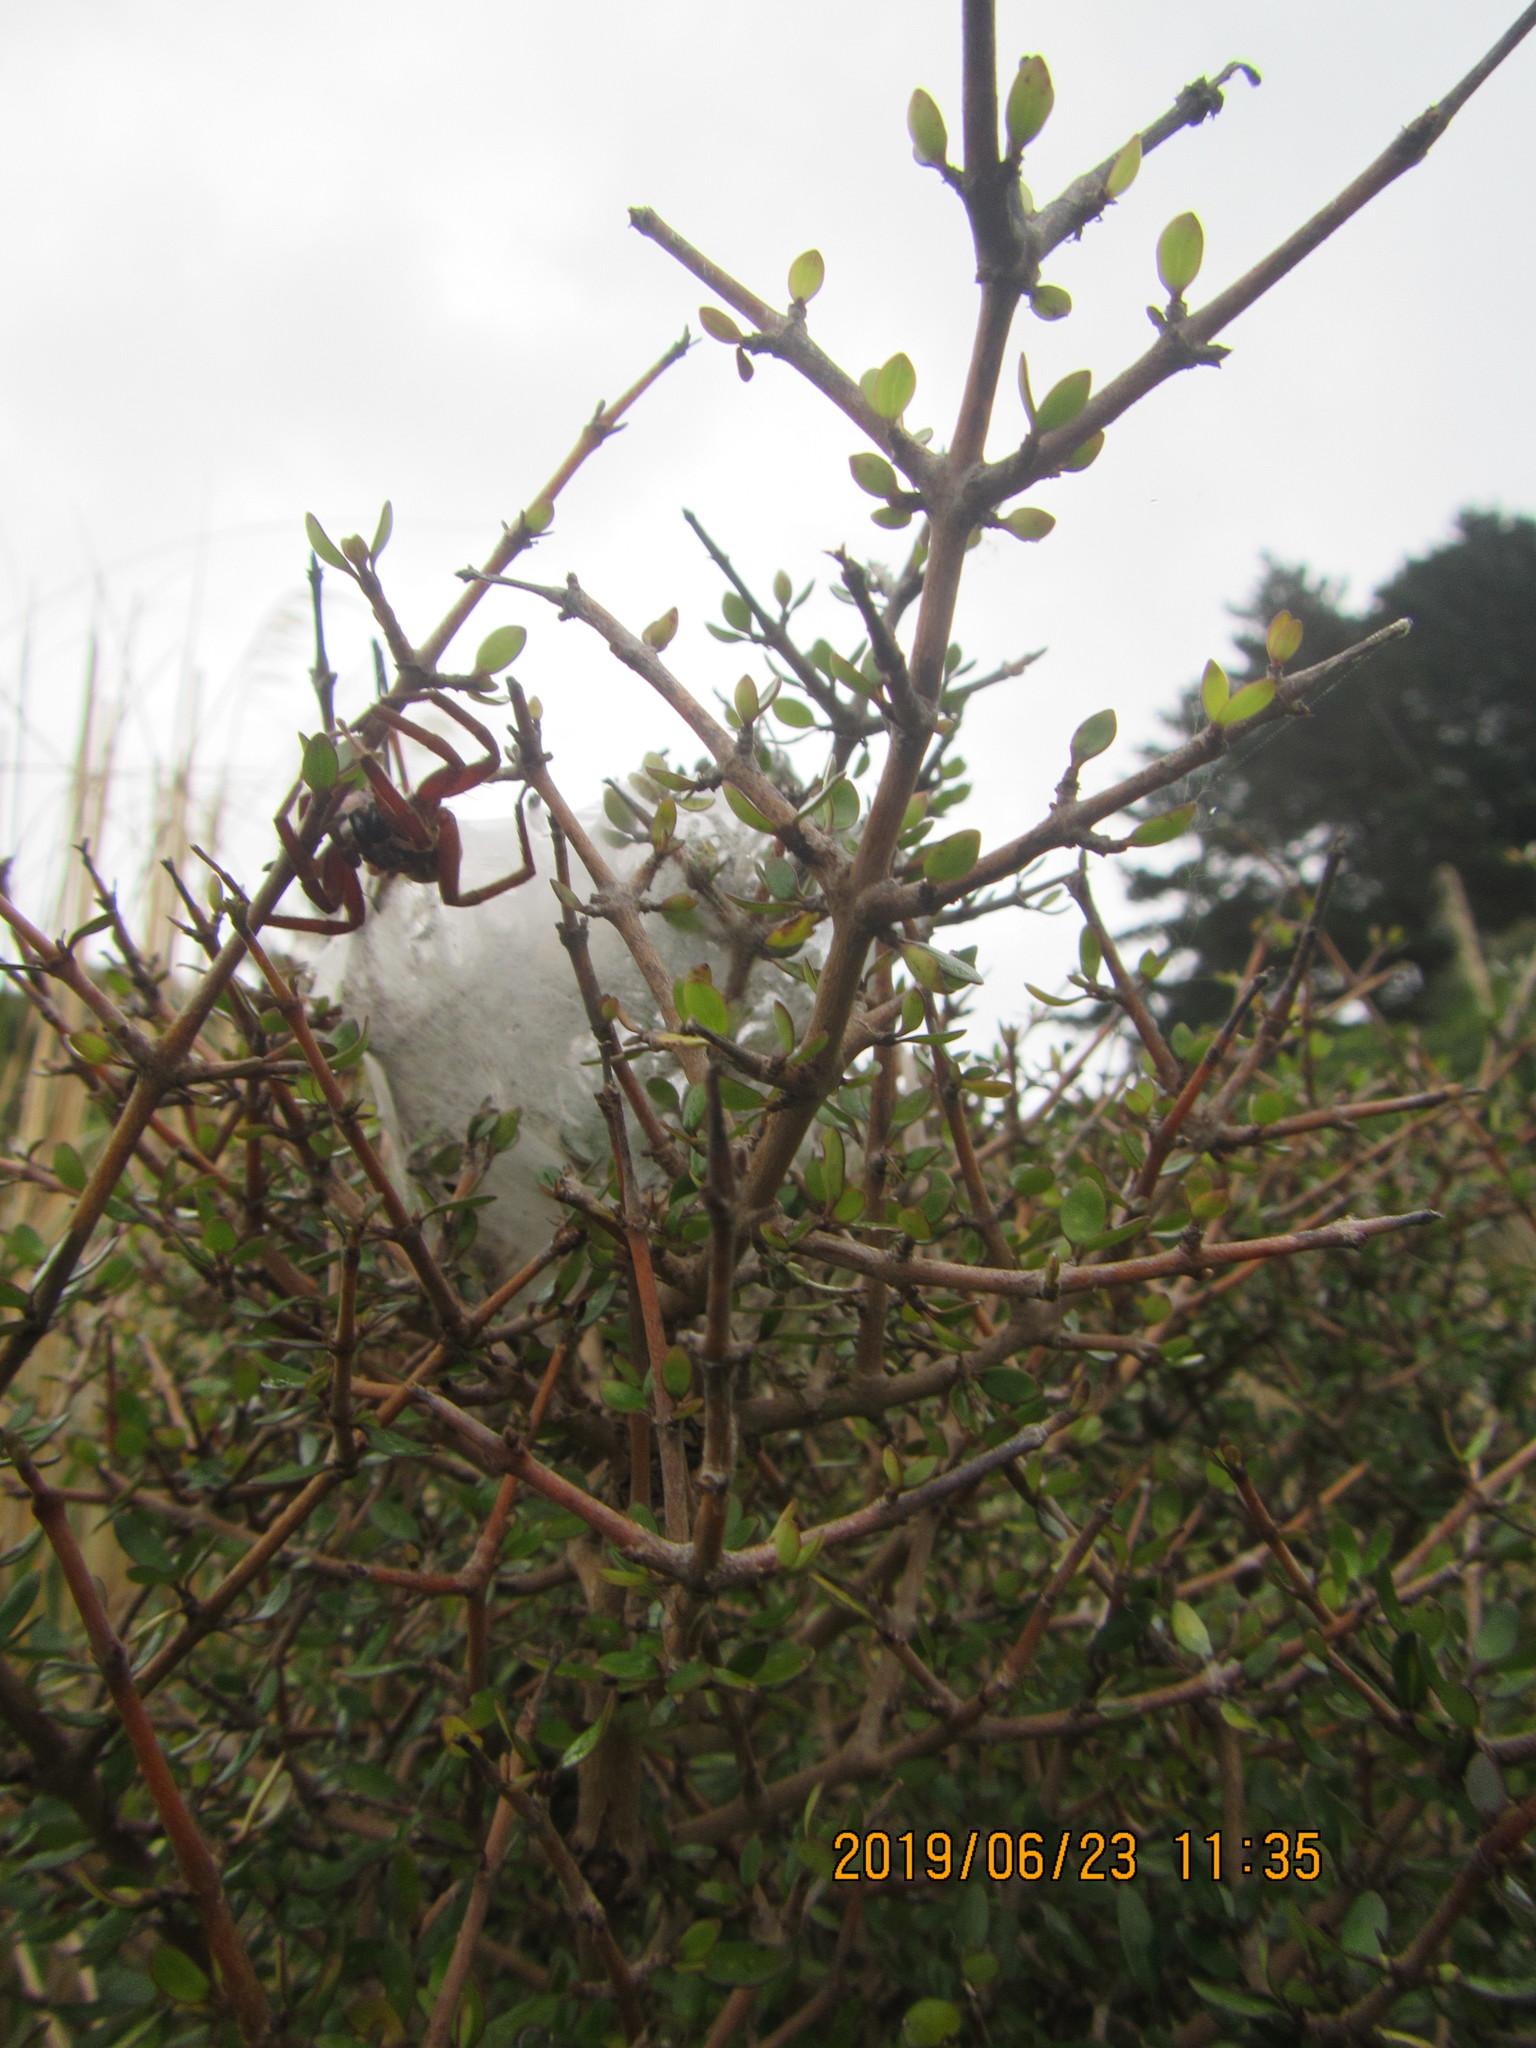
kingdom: Animalia
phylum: Arthropoda
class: Arachnida
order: Araneae
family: Pisauridae
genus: Dolomedes
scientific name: Dolomedes minor
